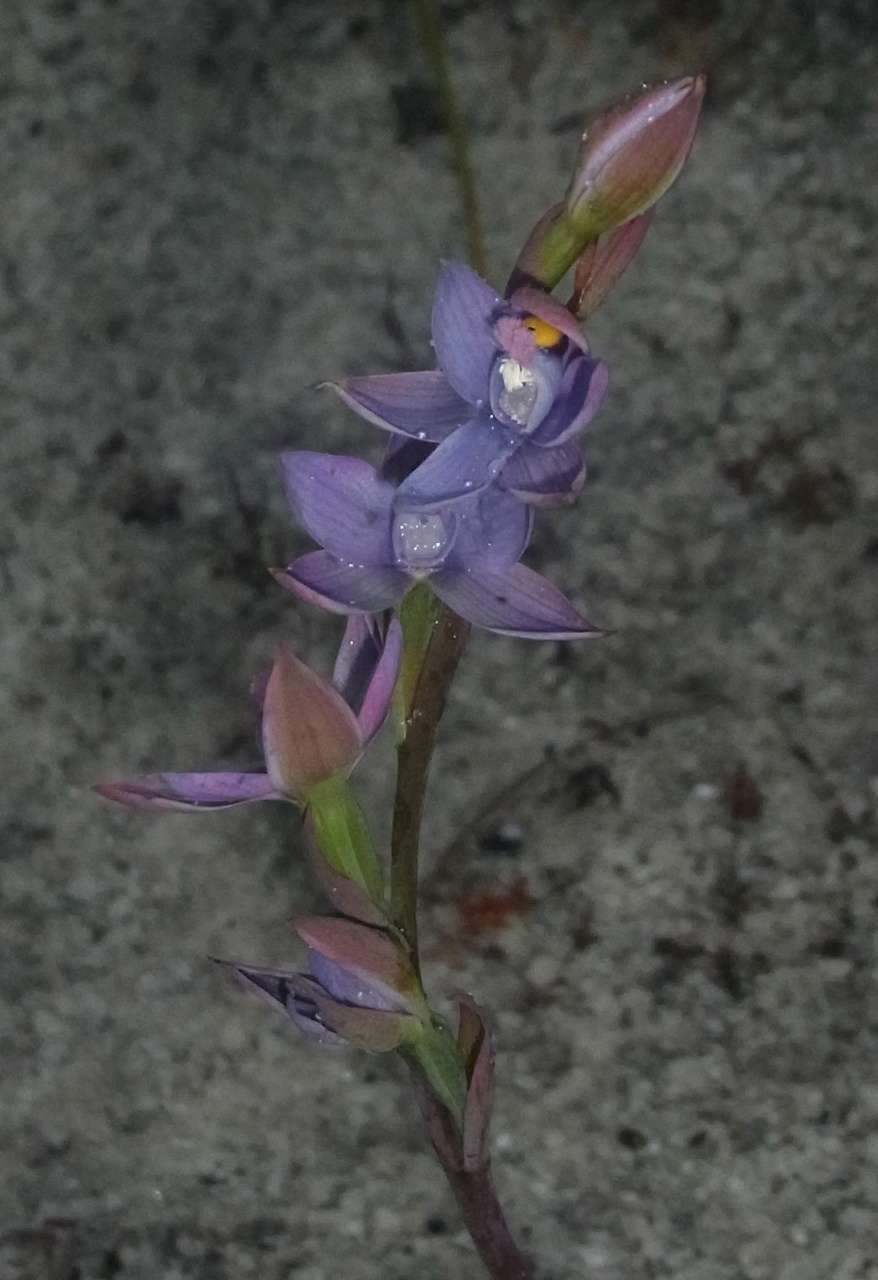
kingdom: Plantae
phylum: Tracheophyta
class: Liliopsida
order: Asparagales
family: Orchidaceae
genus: Thelymitra
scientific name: Thelymitra malvina
